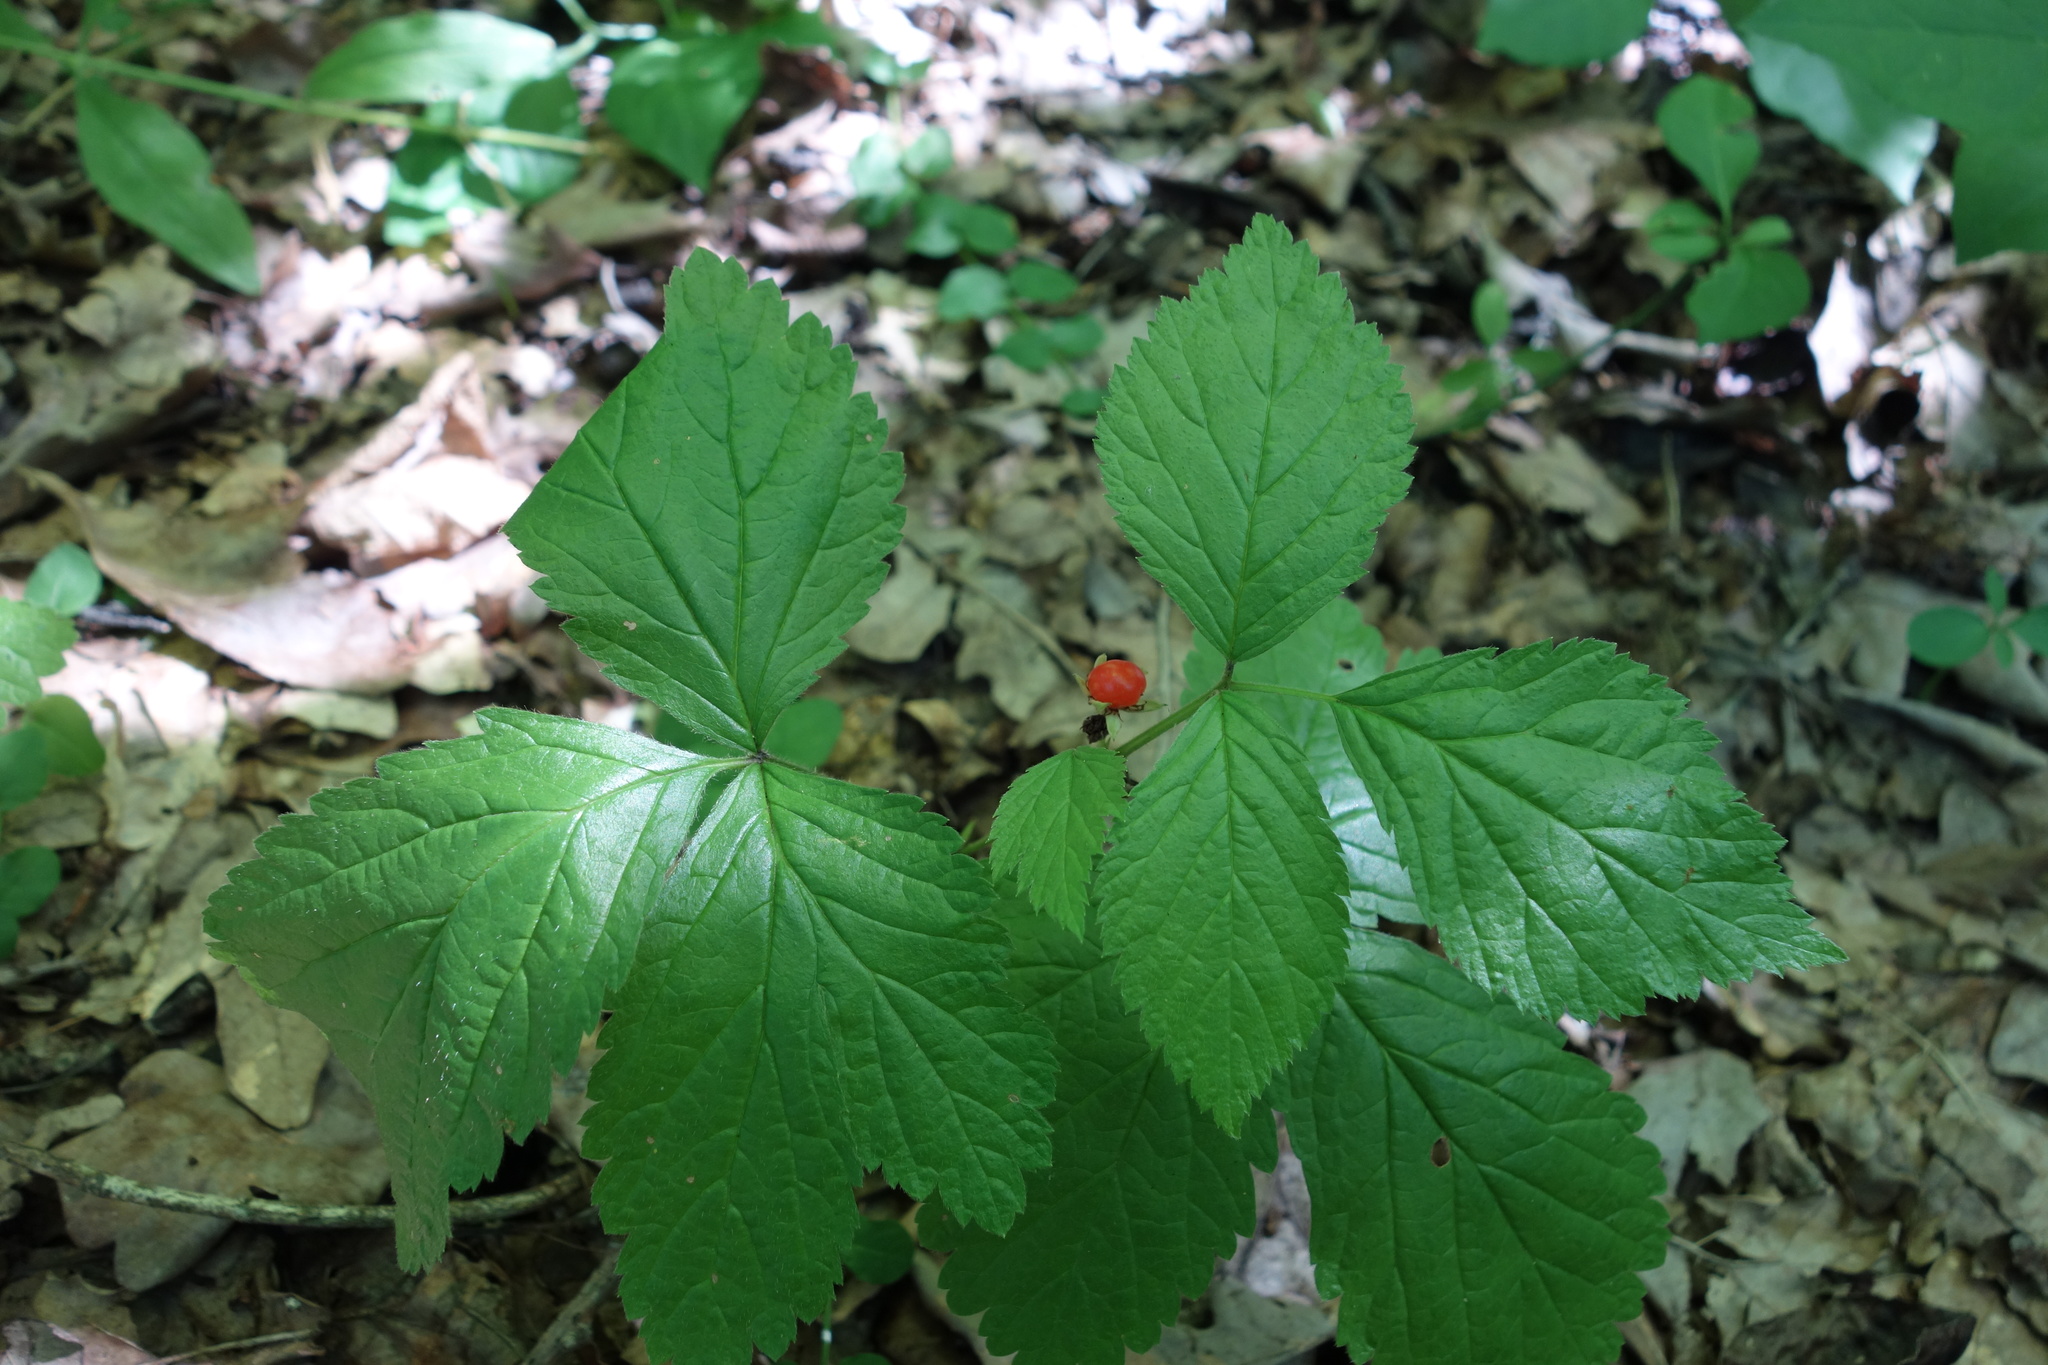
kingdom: Plantae
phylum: Tracheophyta
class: Magnoliopsida
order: Rosales
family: Rosaceae
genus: Rubus
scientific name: Rubus saxatilis
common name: Stone bramble
